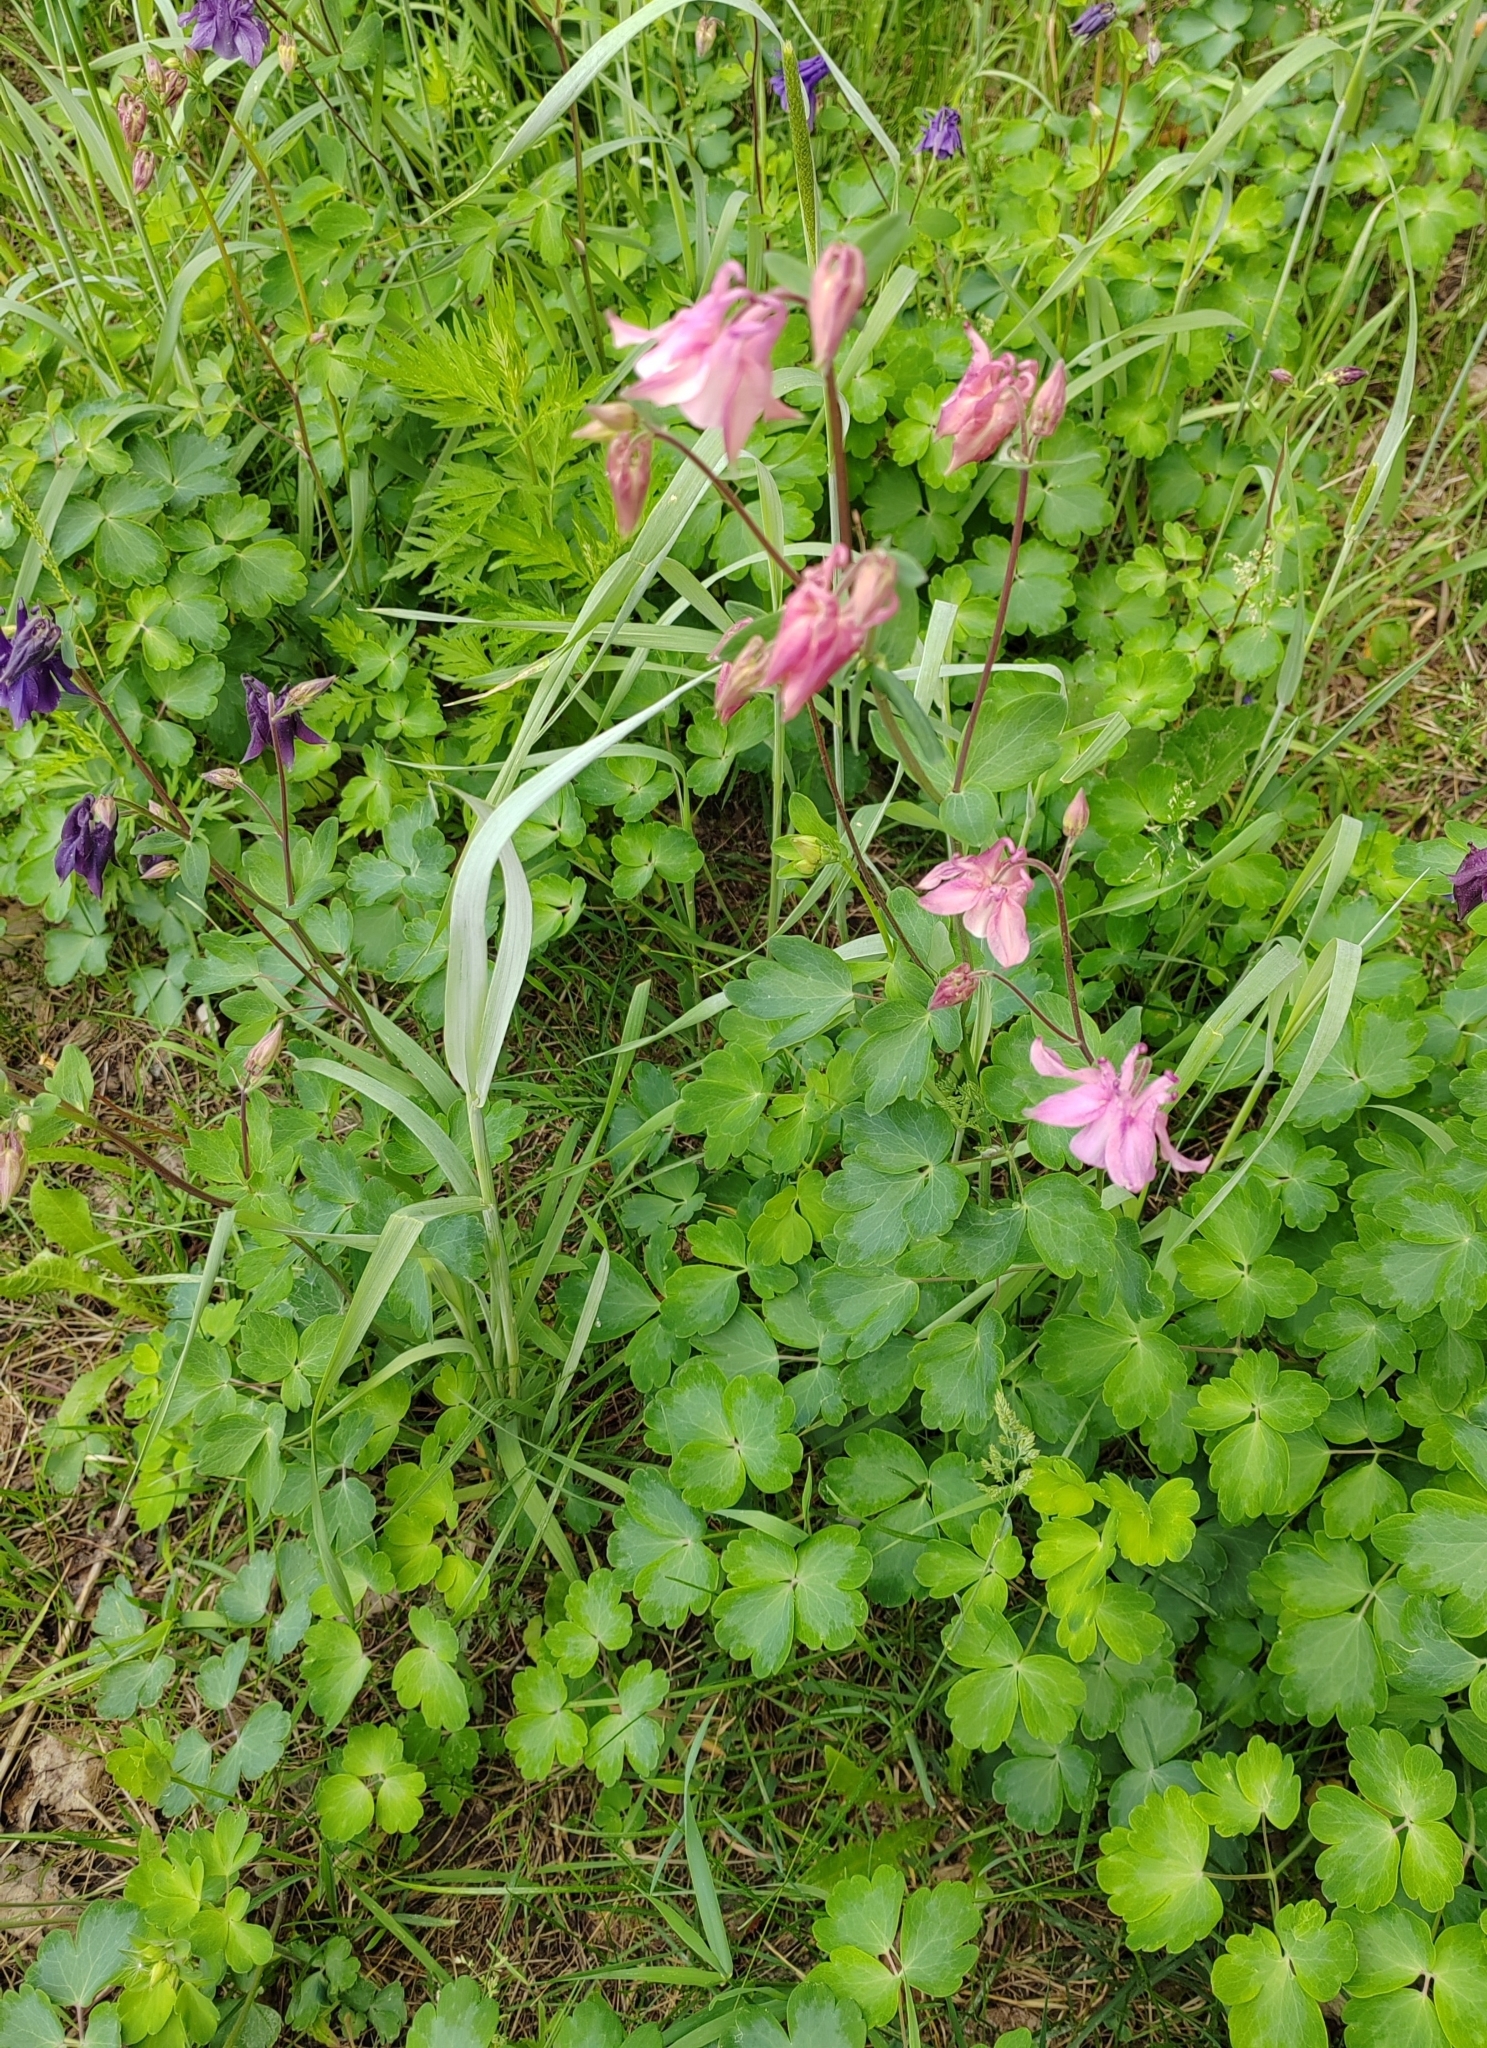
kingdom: Plantae
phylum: Tracheophyta
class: Magnoliopsida
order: Ranunculales
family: Ranunculaceae
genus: Aquilegia
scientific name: Aquilegia vulgaris
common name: Columbine
